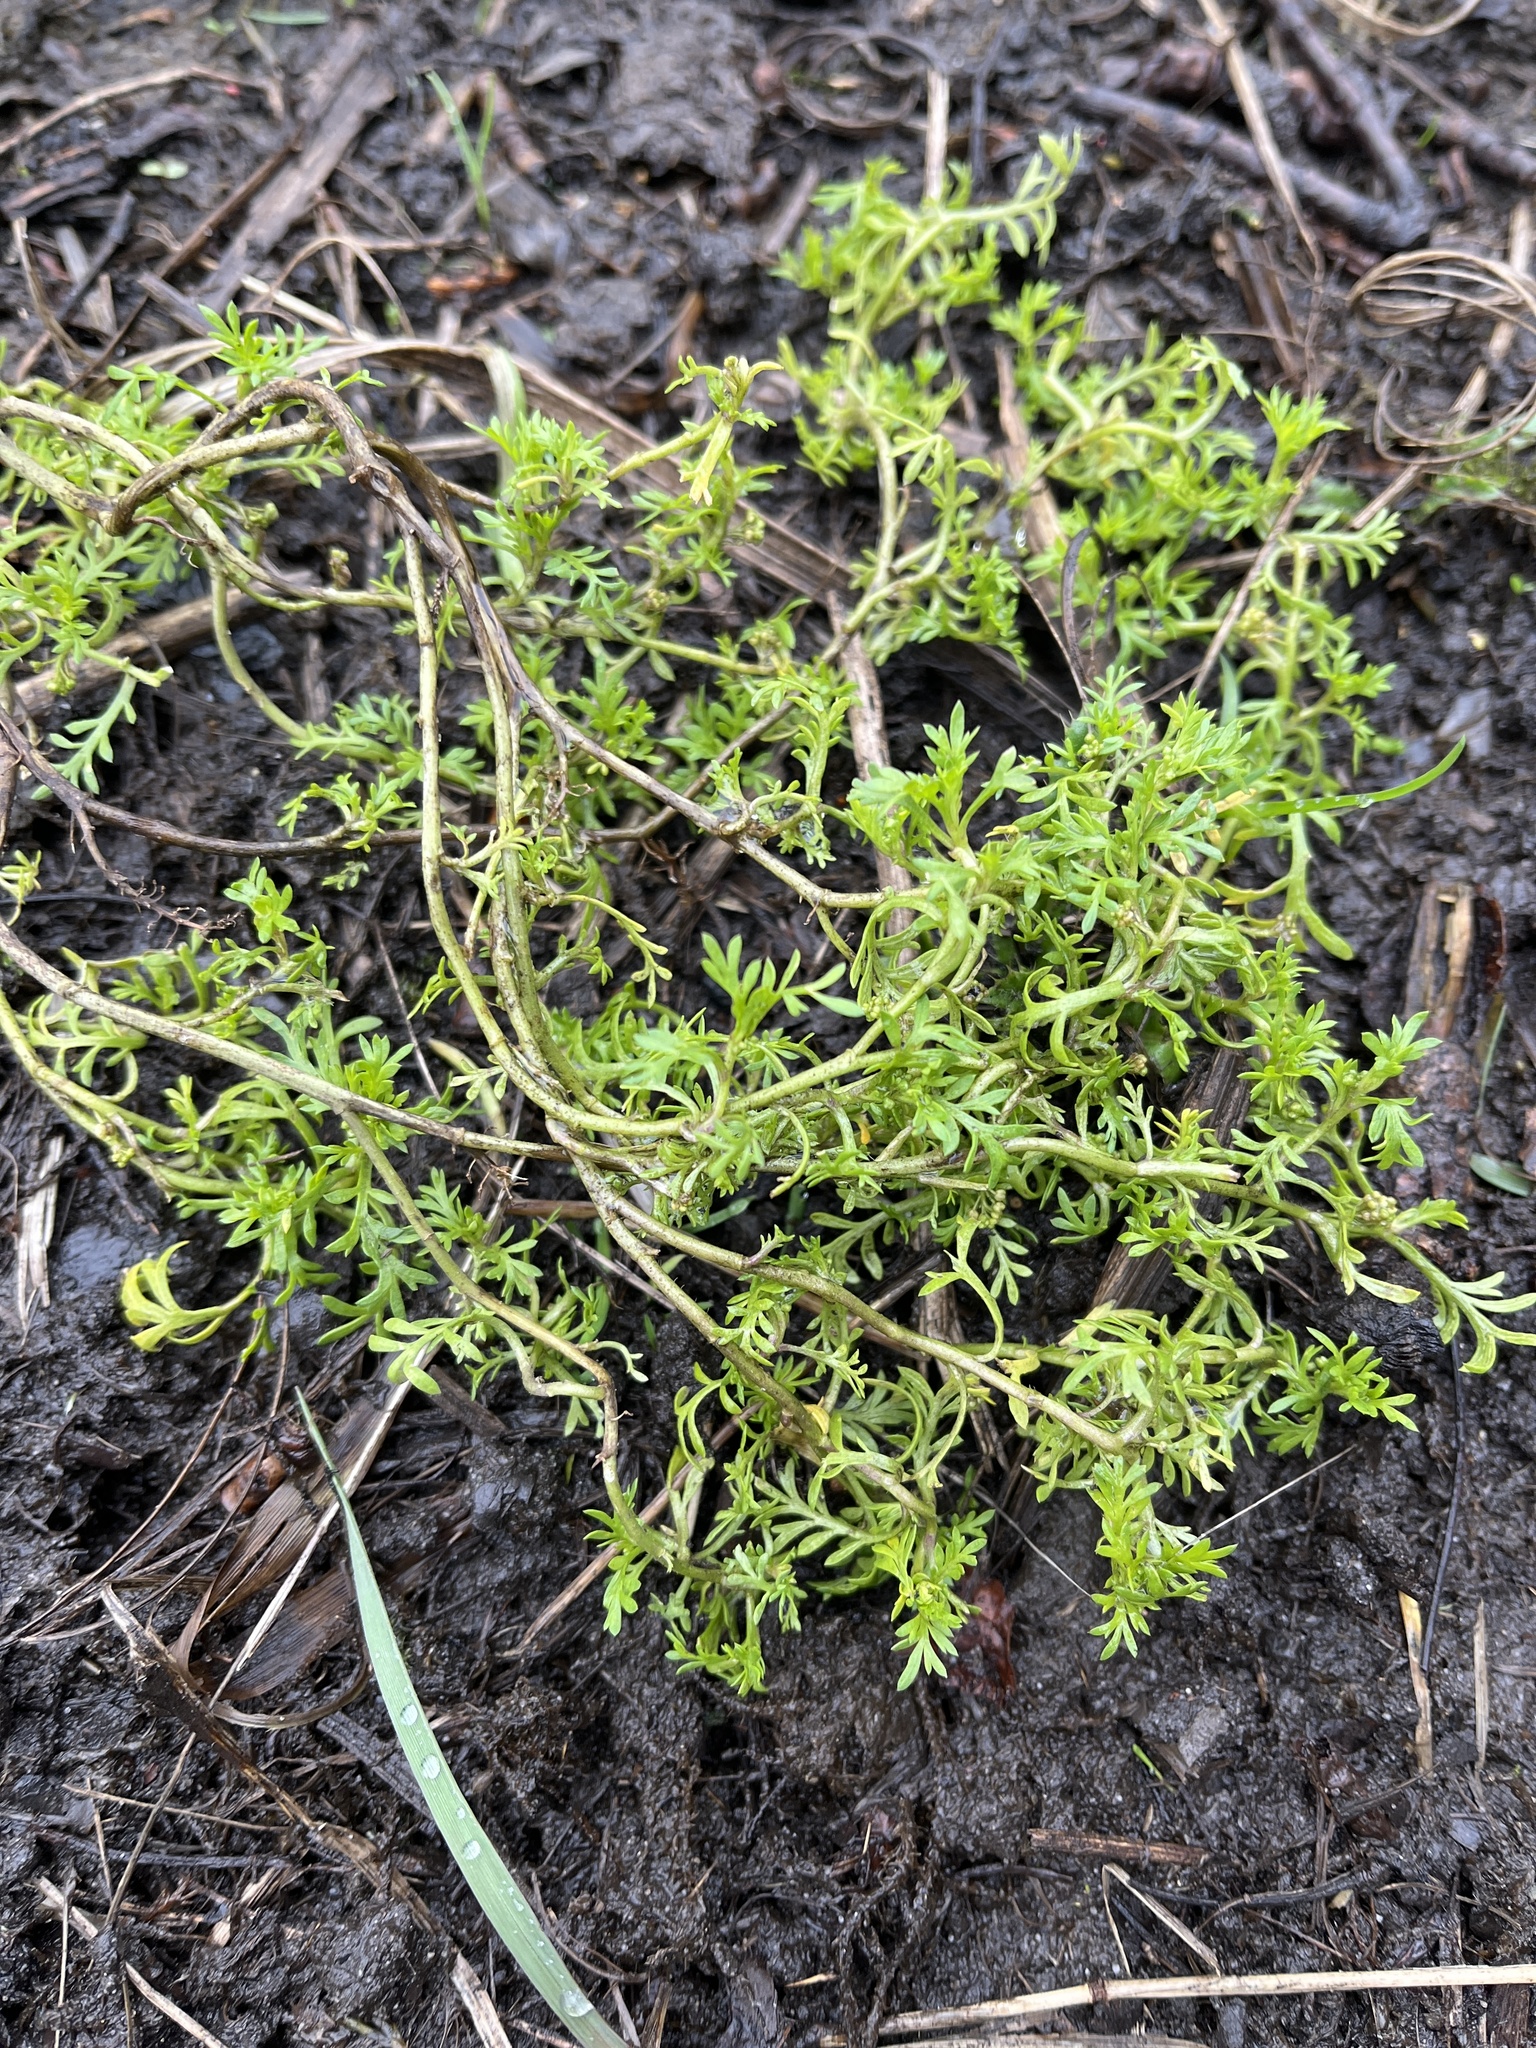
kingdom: Plantae
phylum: Tracheophyta
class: Magnoliopsida
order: Brassicales
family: Brassicaceae
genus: Lepidium
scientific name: Lepidium didymum
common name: Lesser swinecress
